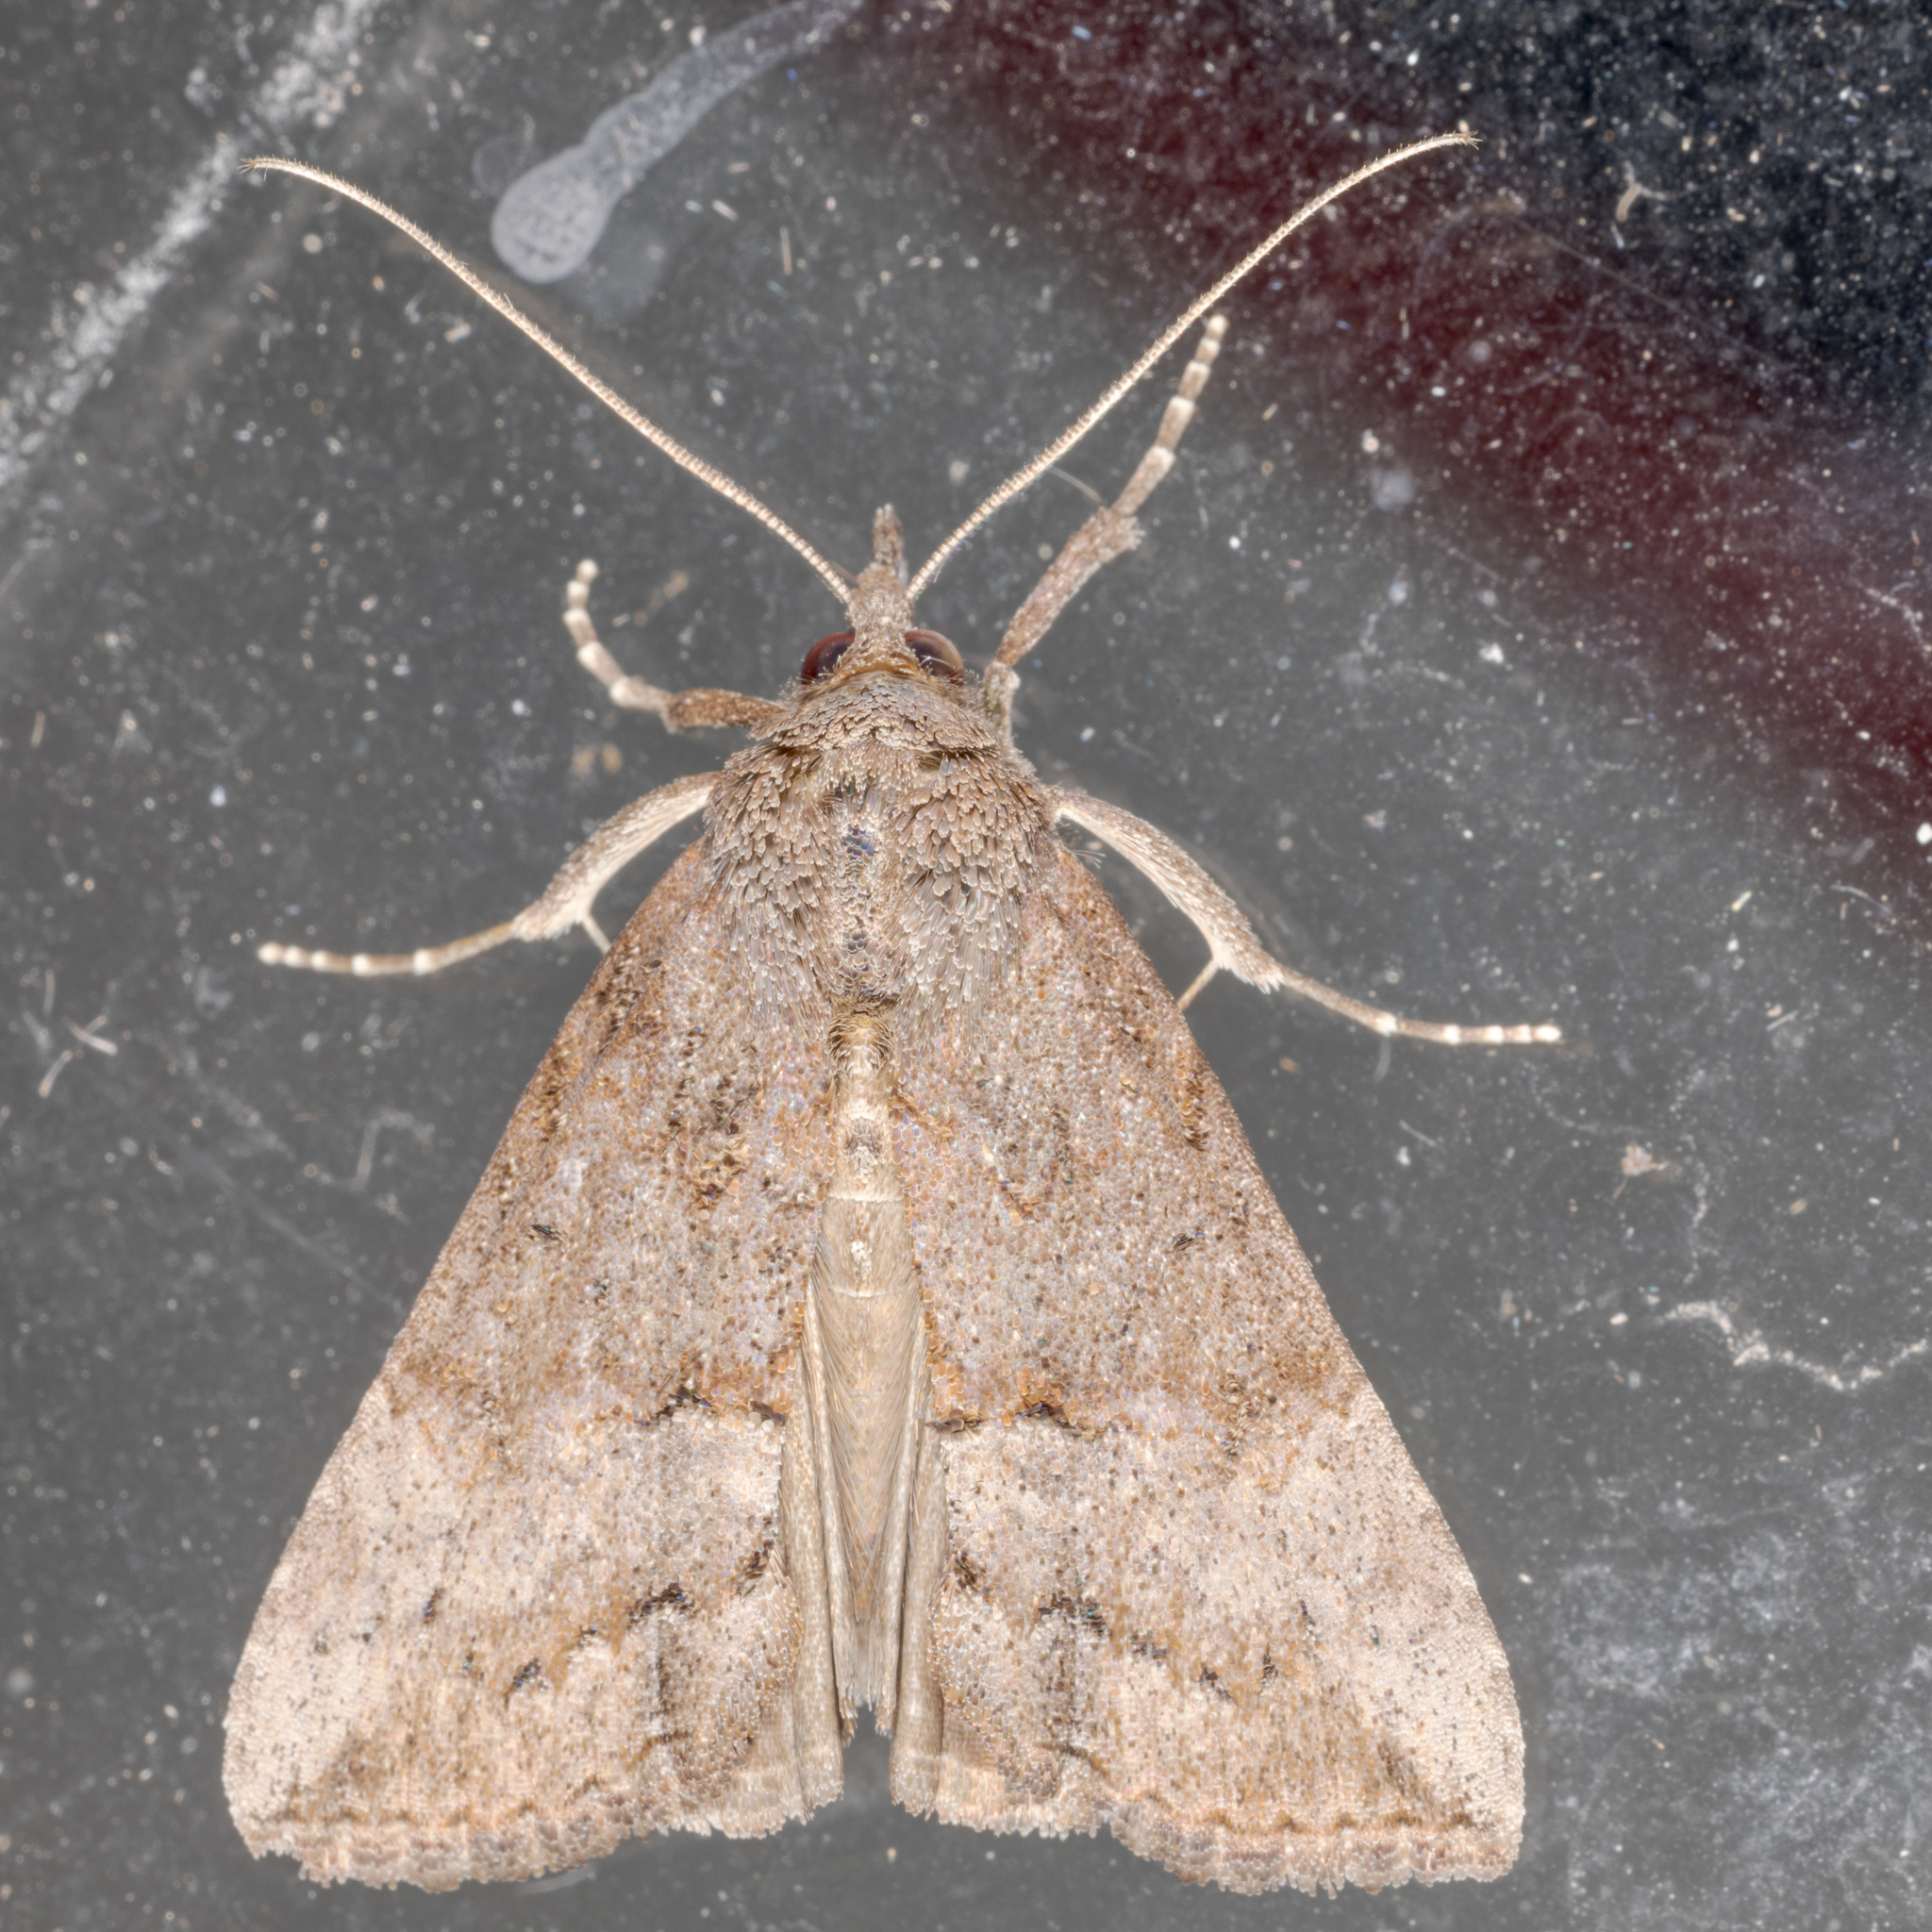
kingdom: Animalia
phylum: Arthropoda
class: Insecta
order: Lepidoptera
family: Erebidae
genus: Hypena
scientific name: Hypena scabra
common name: Green cloverworm
